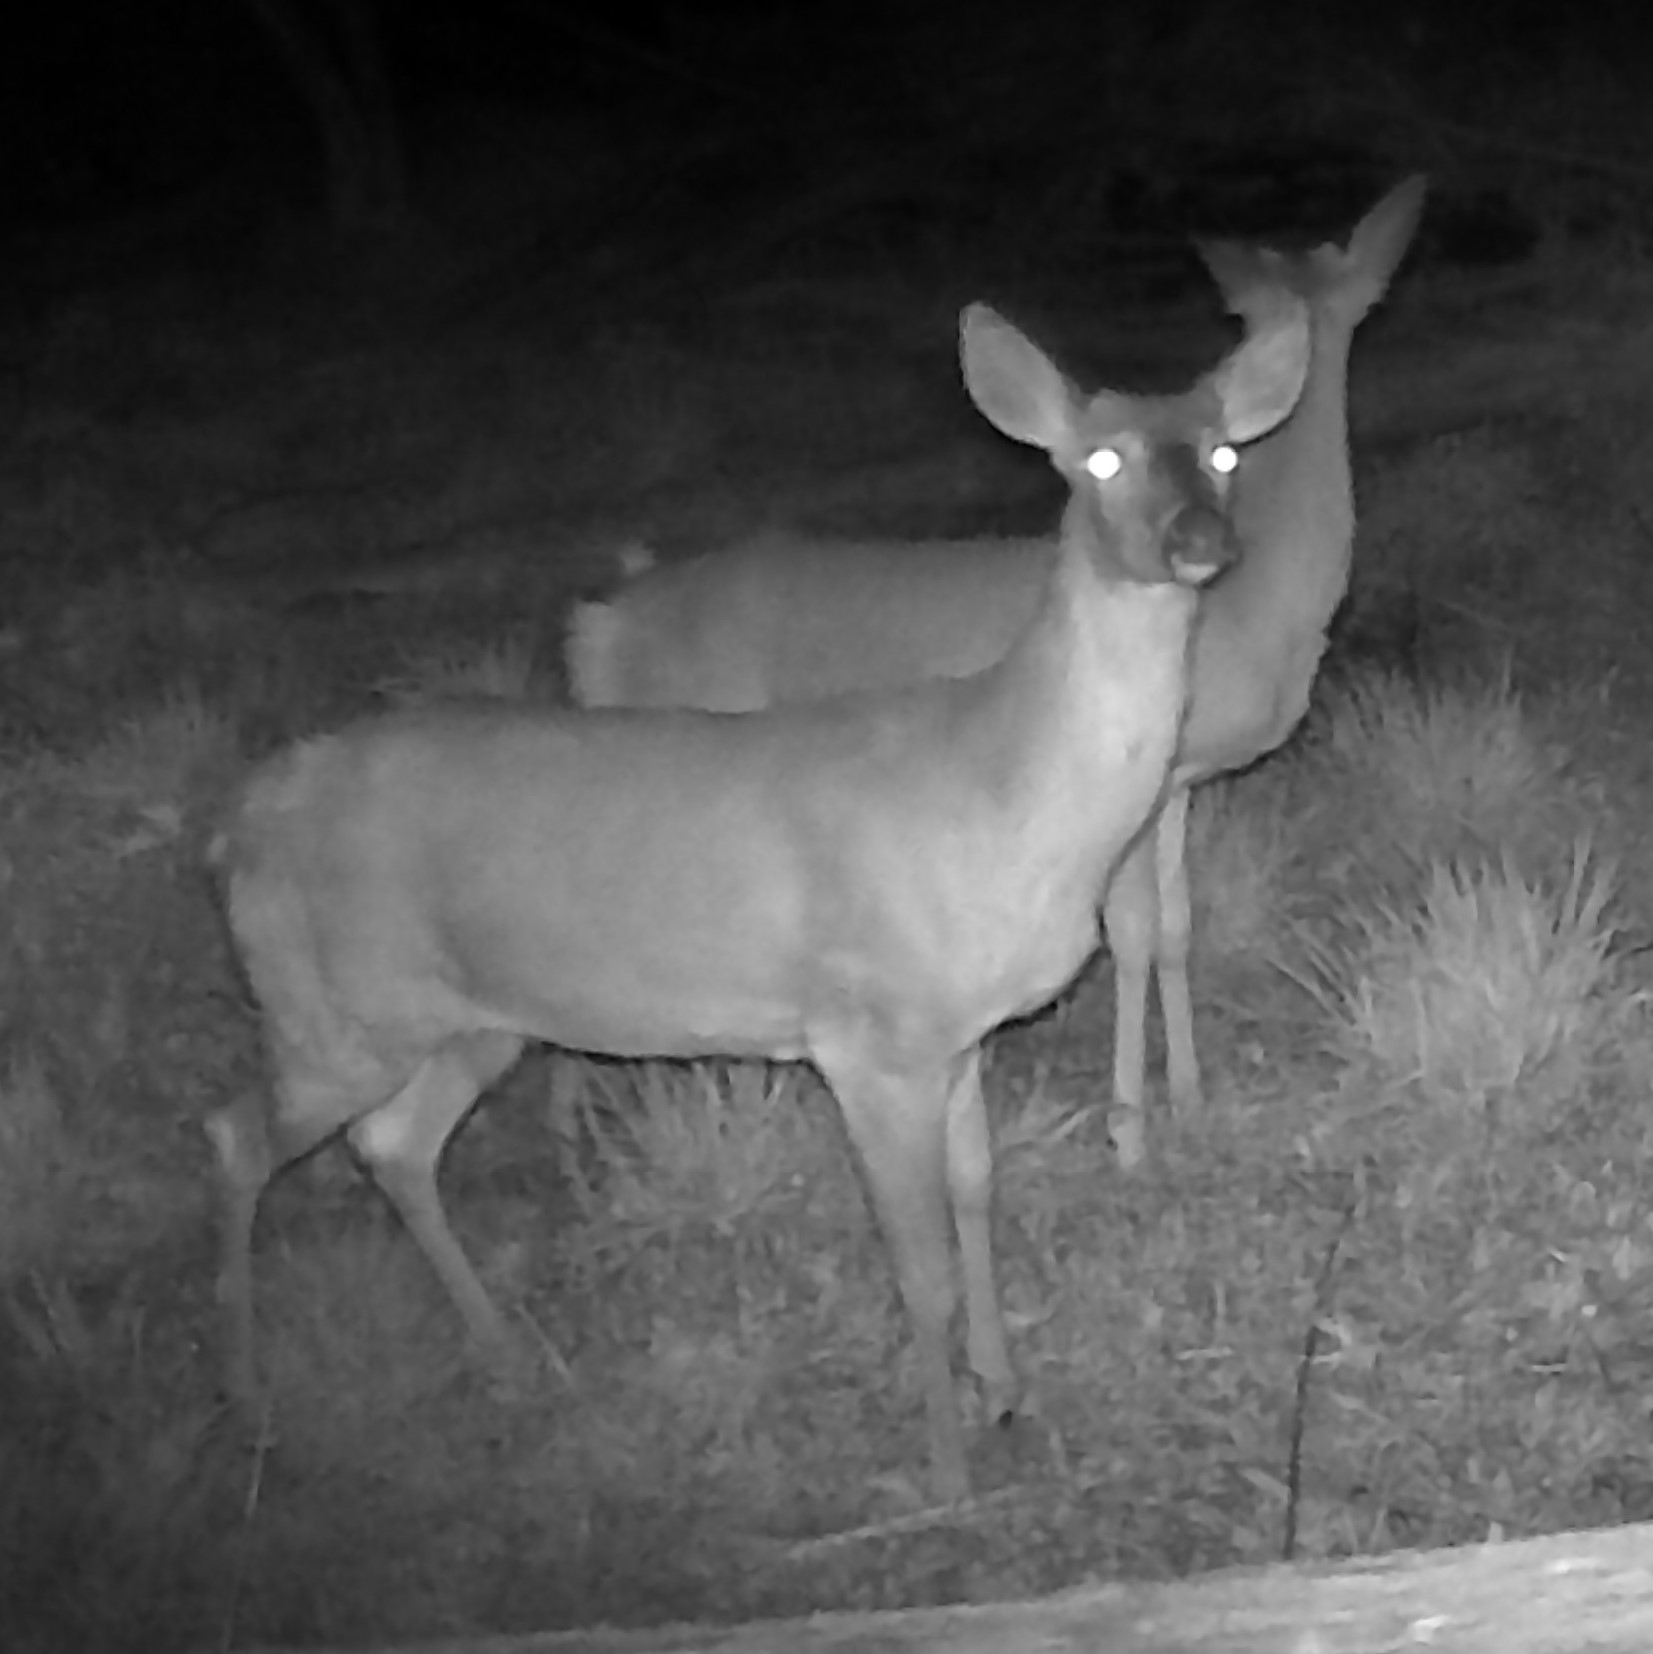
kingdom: Animalia
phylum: Chordata
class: Mammalia
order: Artiodactyla
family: Cervidae
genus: Odocoileus
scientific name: Odocoileus virginianus
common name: White-tailed deer
